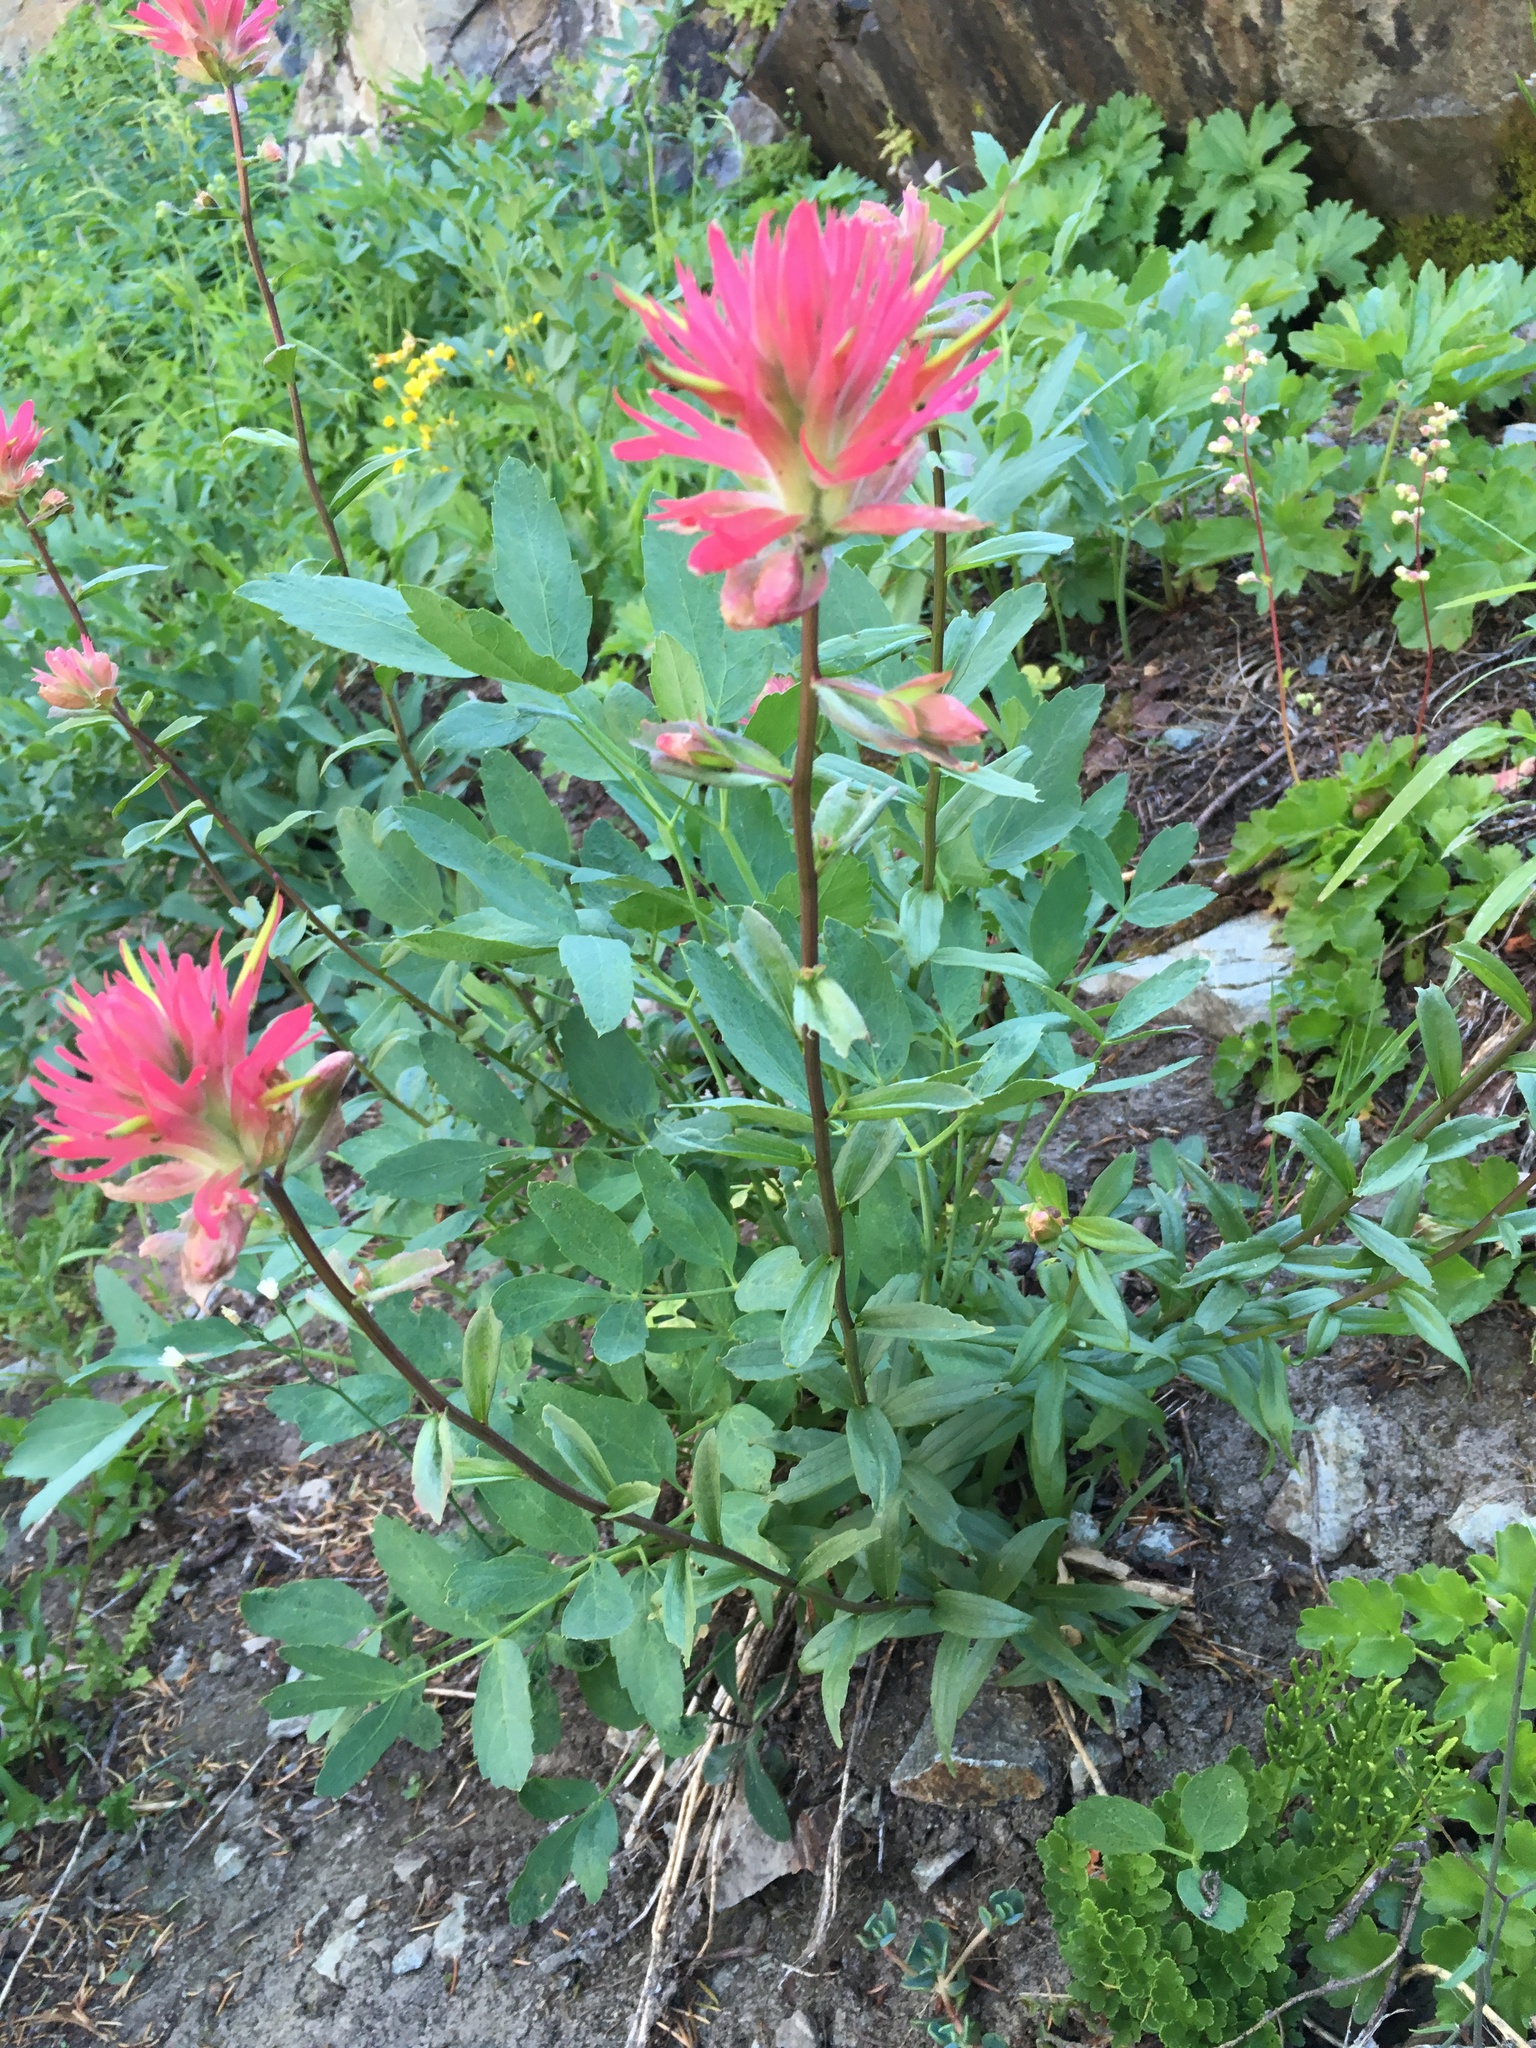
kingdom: Plantae
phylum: Tracheophyta
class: Magnoliopsida
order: Lamiales
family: Orobanchaceae
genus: Castilleja
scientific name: Castilleja miniata
